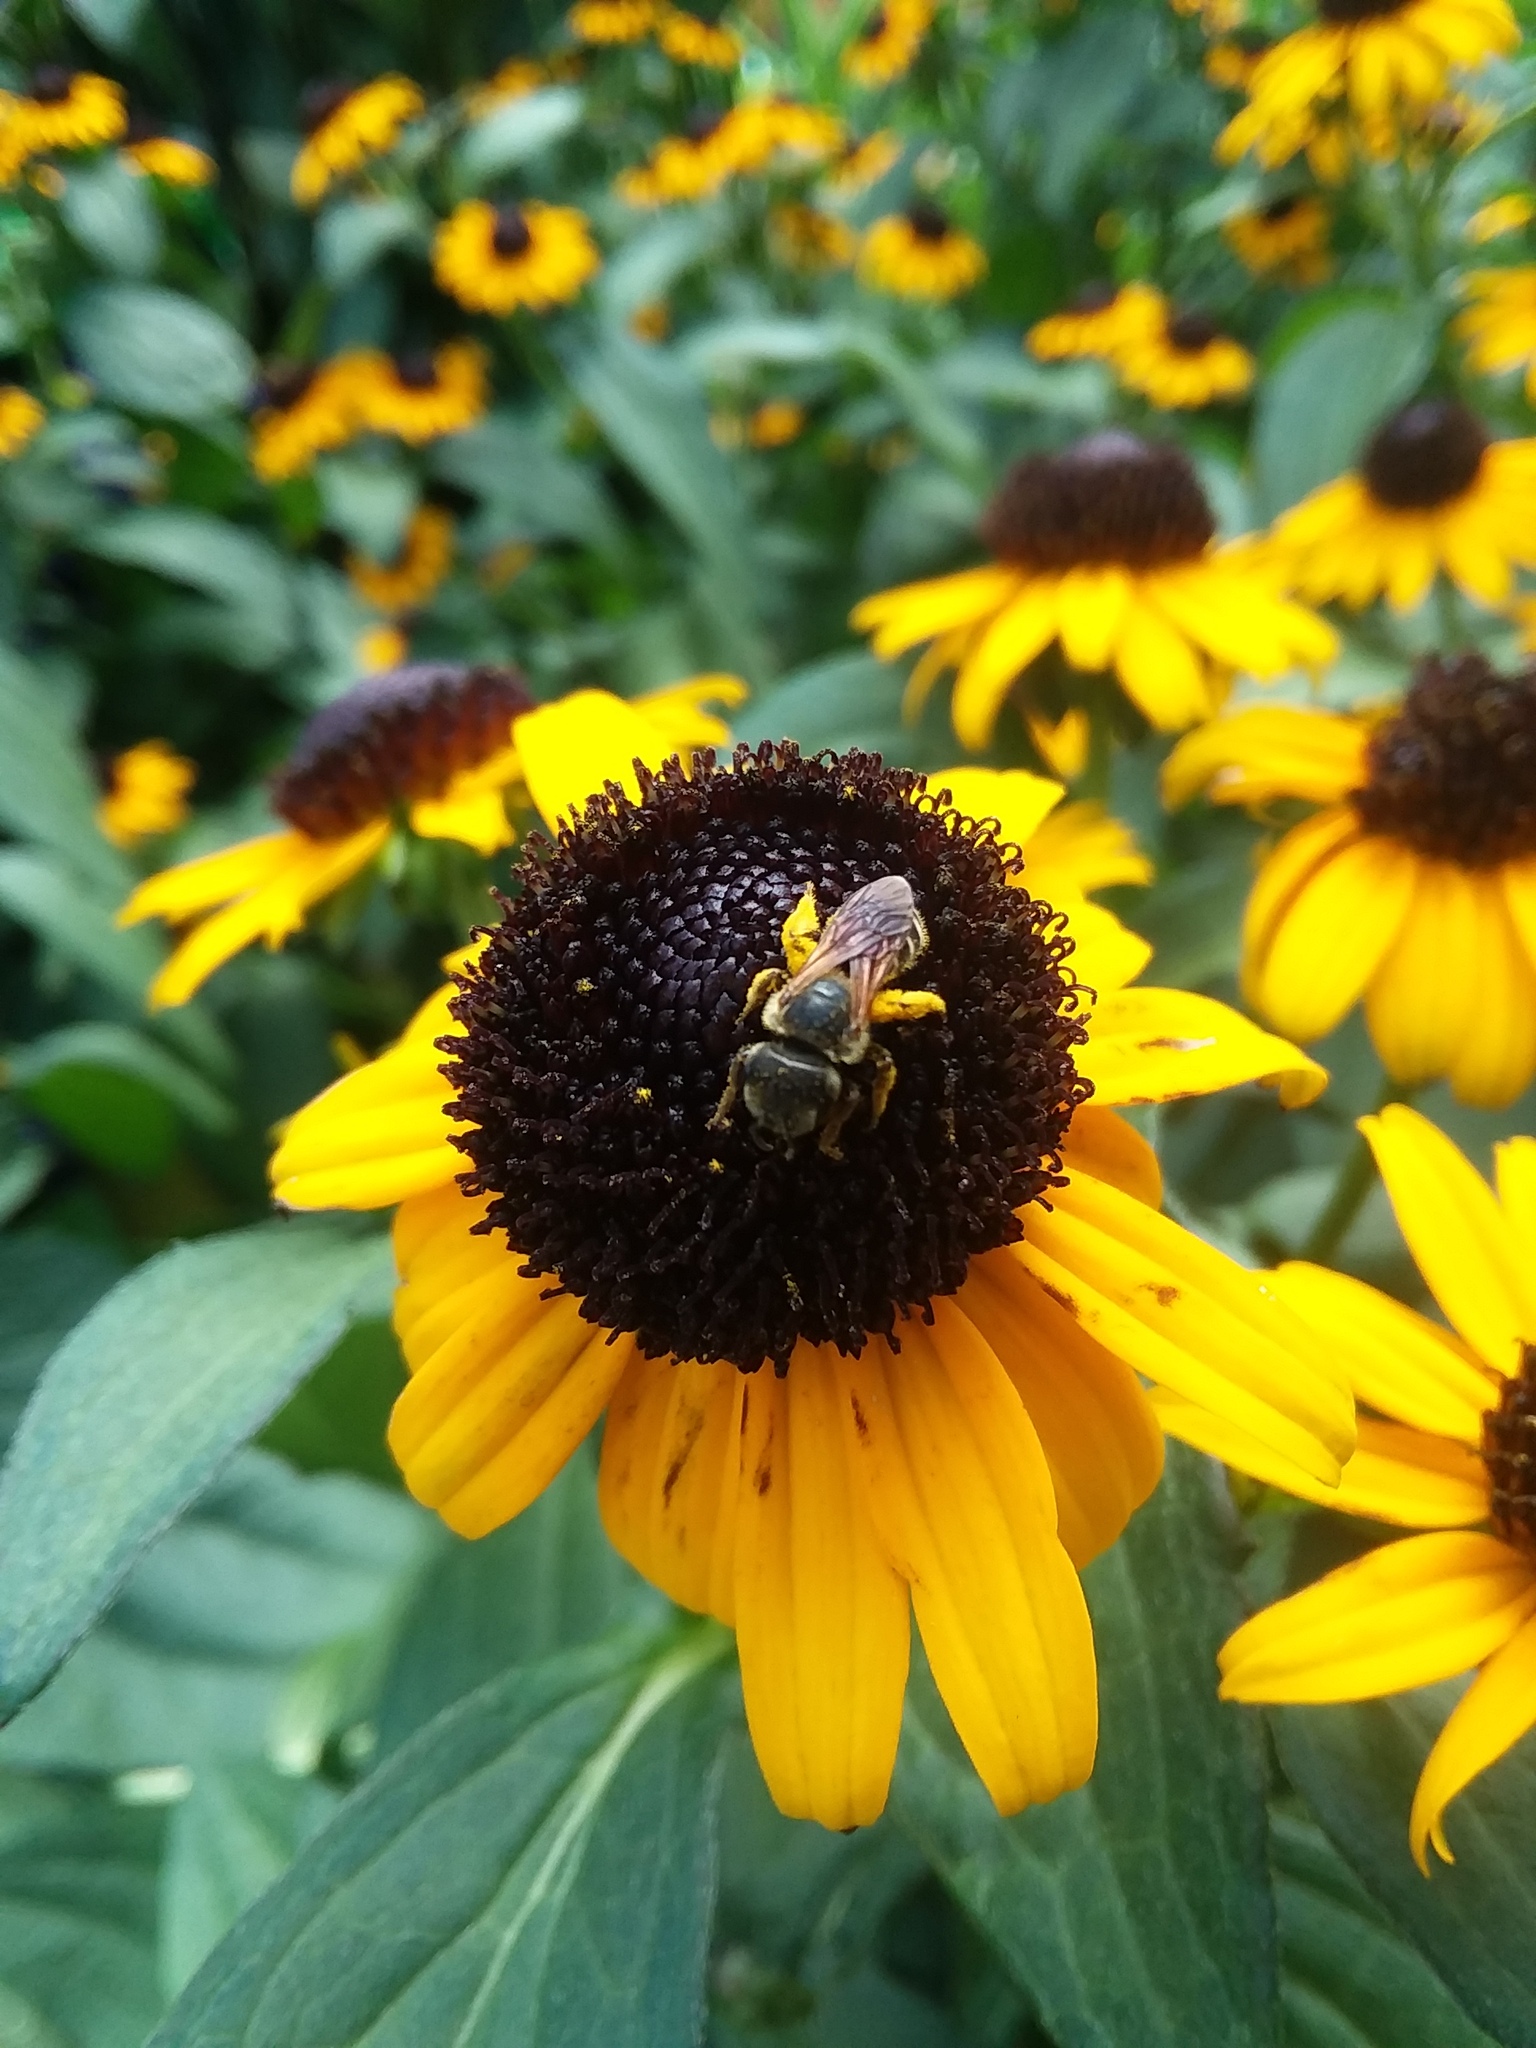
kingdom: Animalia
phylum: Arthropoda
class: Insecta
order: Hymenoptera
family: Halictidae
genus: Halictus
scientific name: Halictus poeyi
